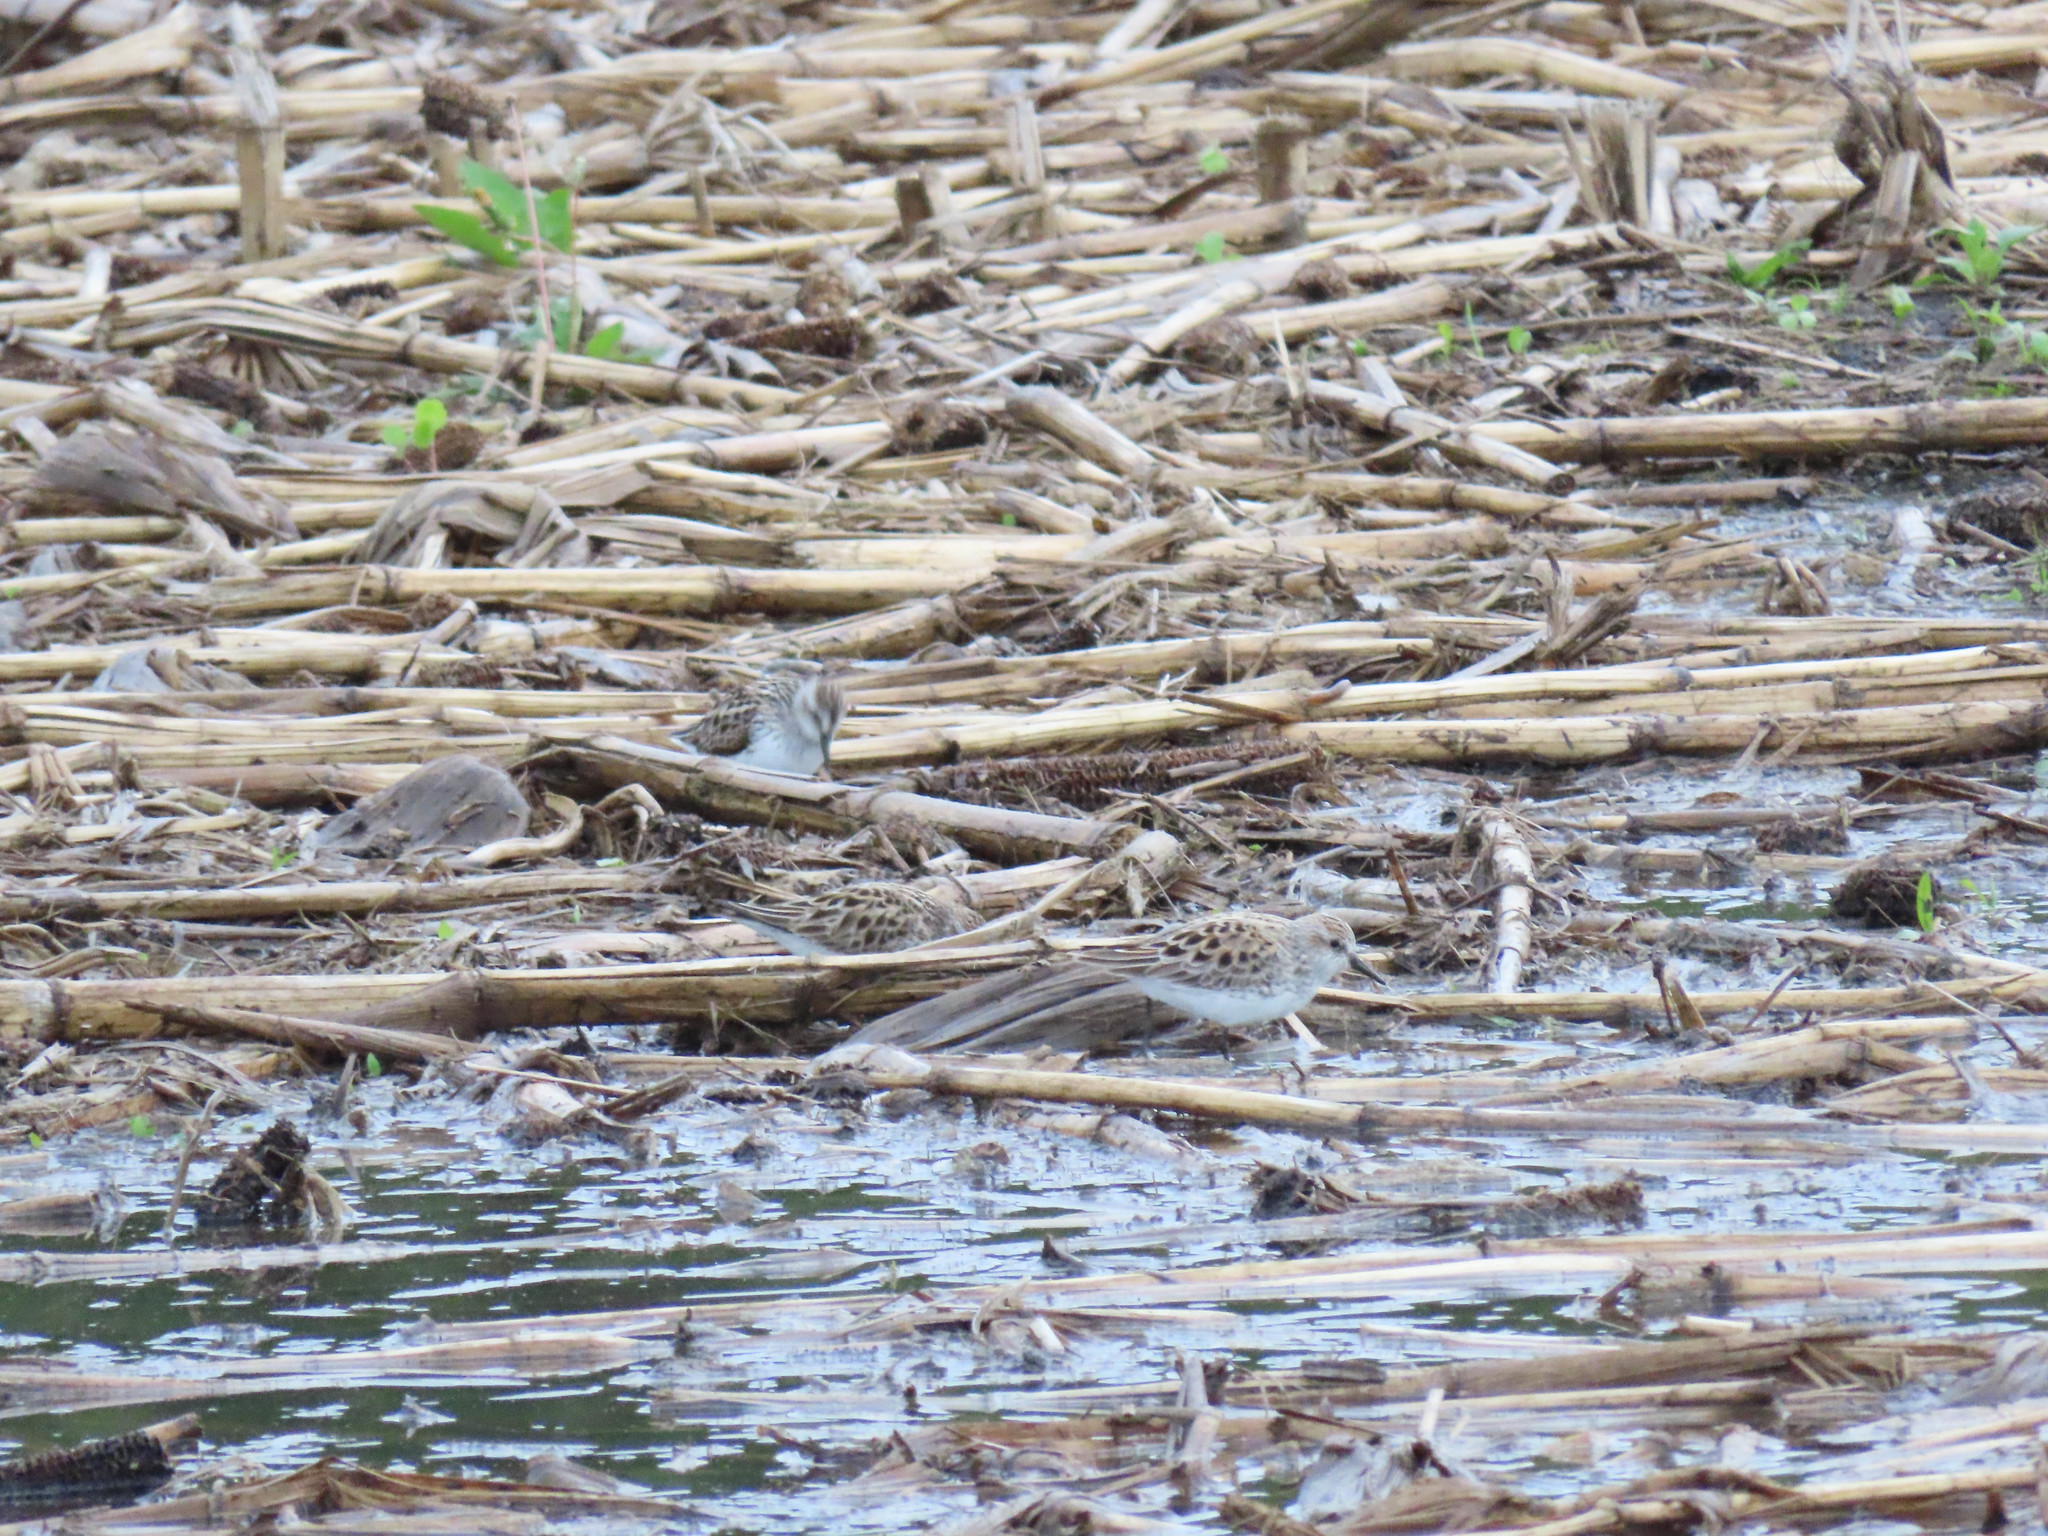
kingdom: Animalia
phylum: Chordata
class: Aves
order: Charadriiformes
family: Scolopacidae
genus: Calidris
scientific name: Calidris pusilla
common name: Semipalmated sandpiper
